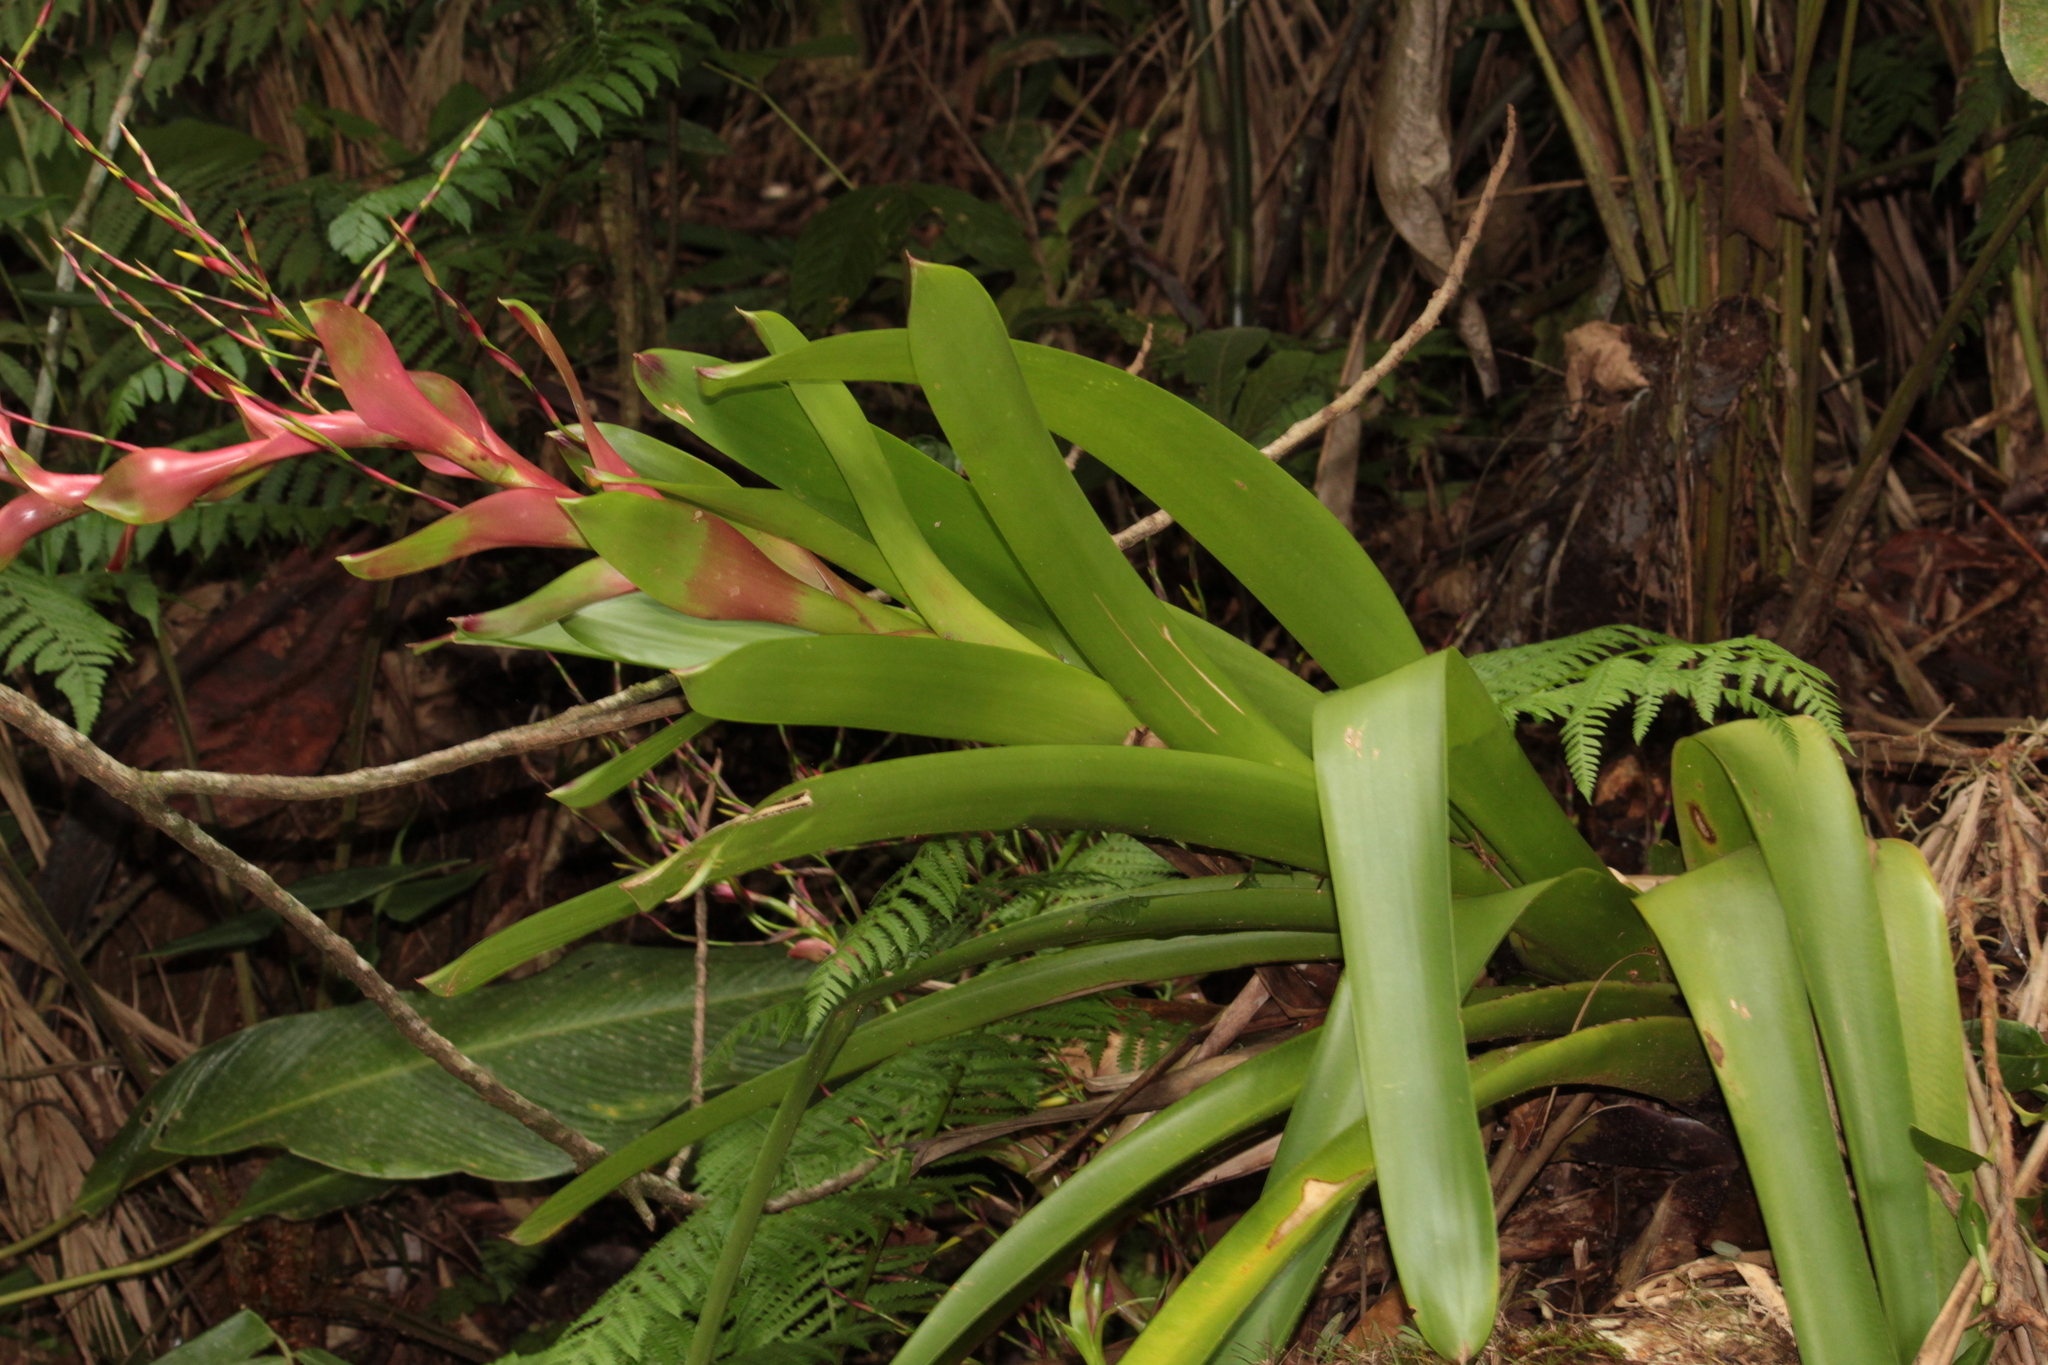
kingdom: Plantae
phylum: Tracheophyta
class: Liliopsida
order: Poales
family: Bromeliaceae
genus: Vriesea
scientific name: Vriesea philippocoburgi
